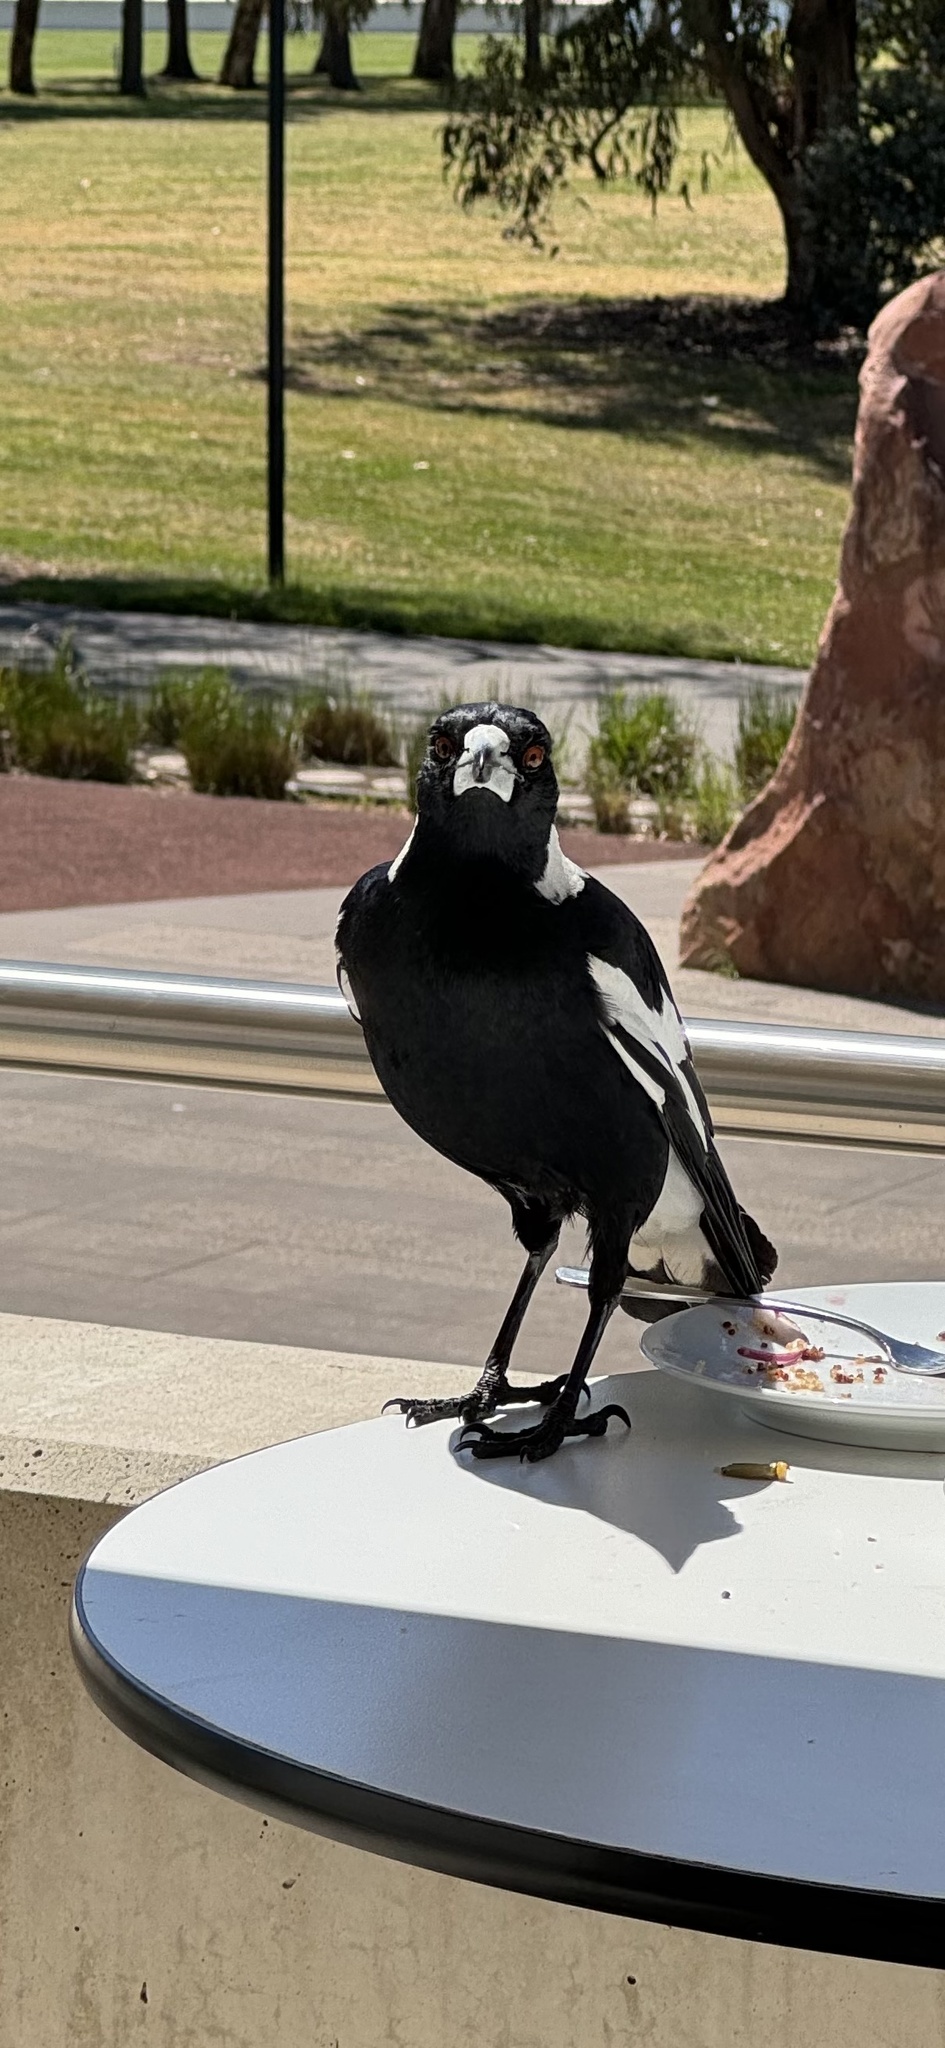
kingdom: Animalia
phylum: Chordata
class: Aves
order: Passeriformes
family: Cracticidae
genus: Gymnorhina
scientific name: Gymnorhina tibicen
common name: Australian magpie
